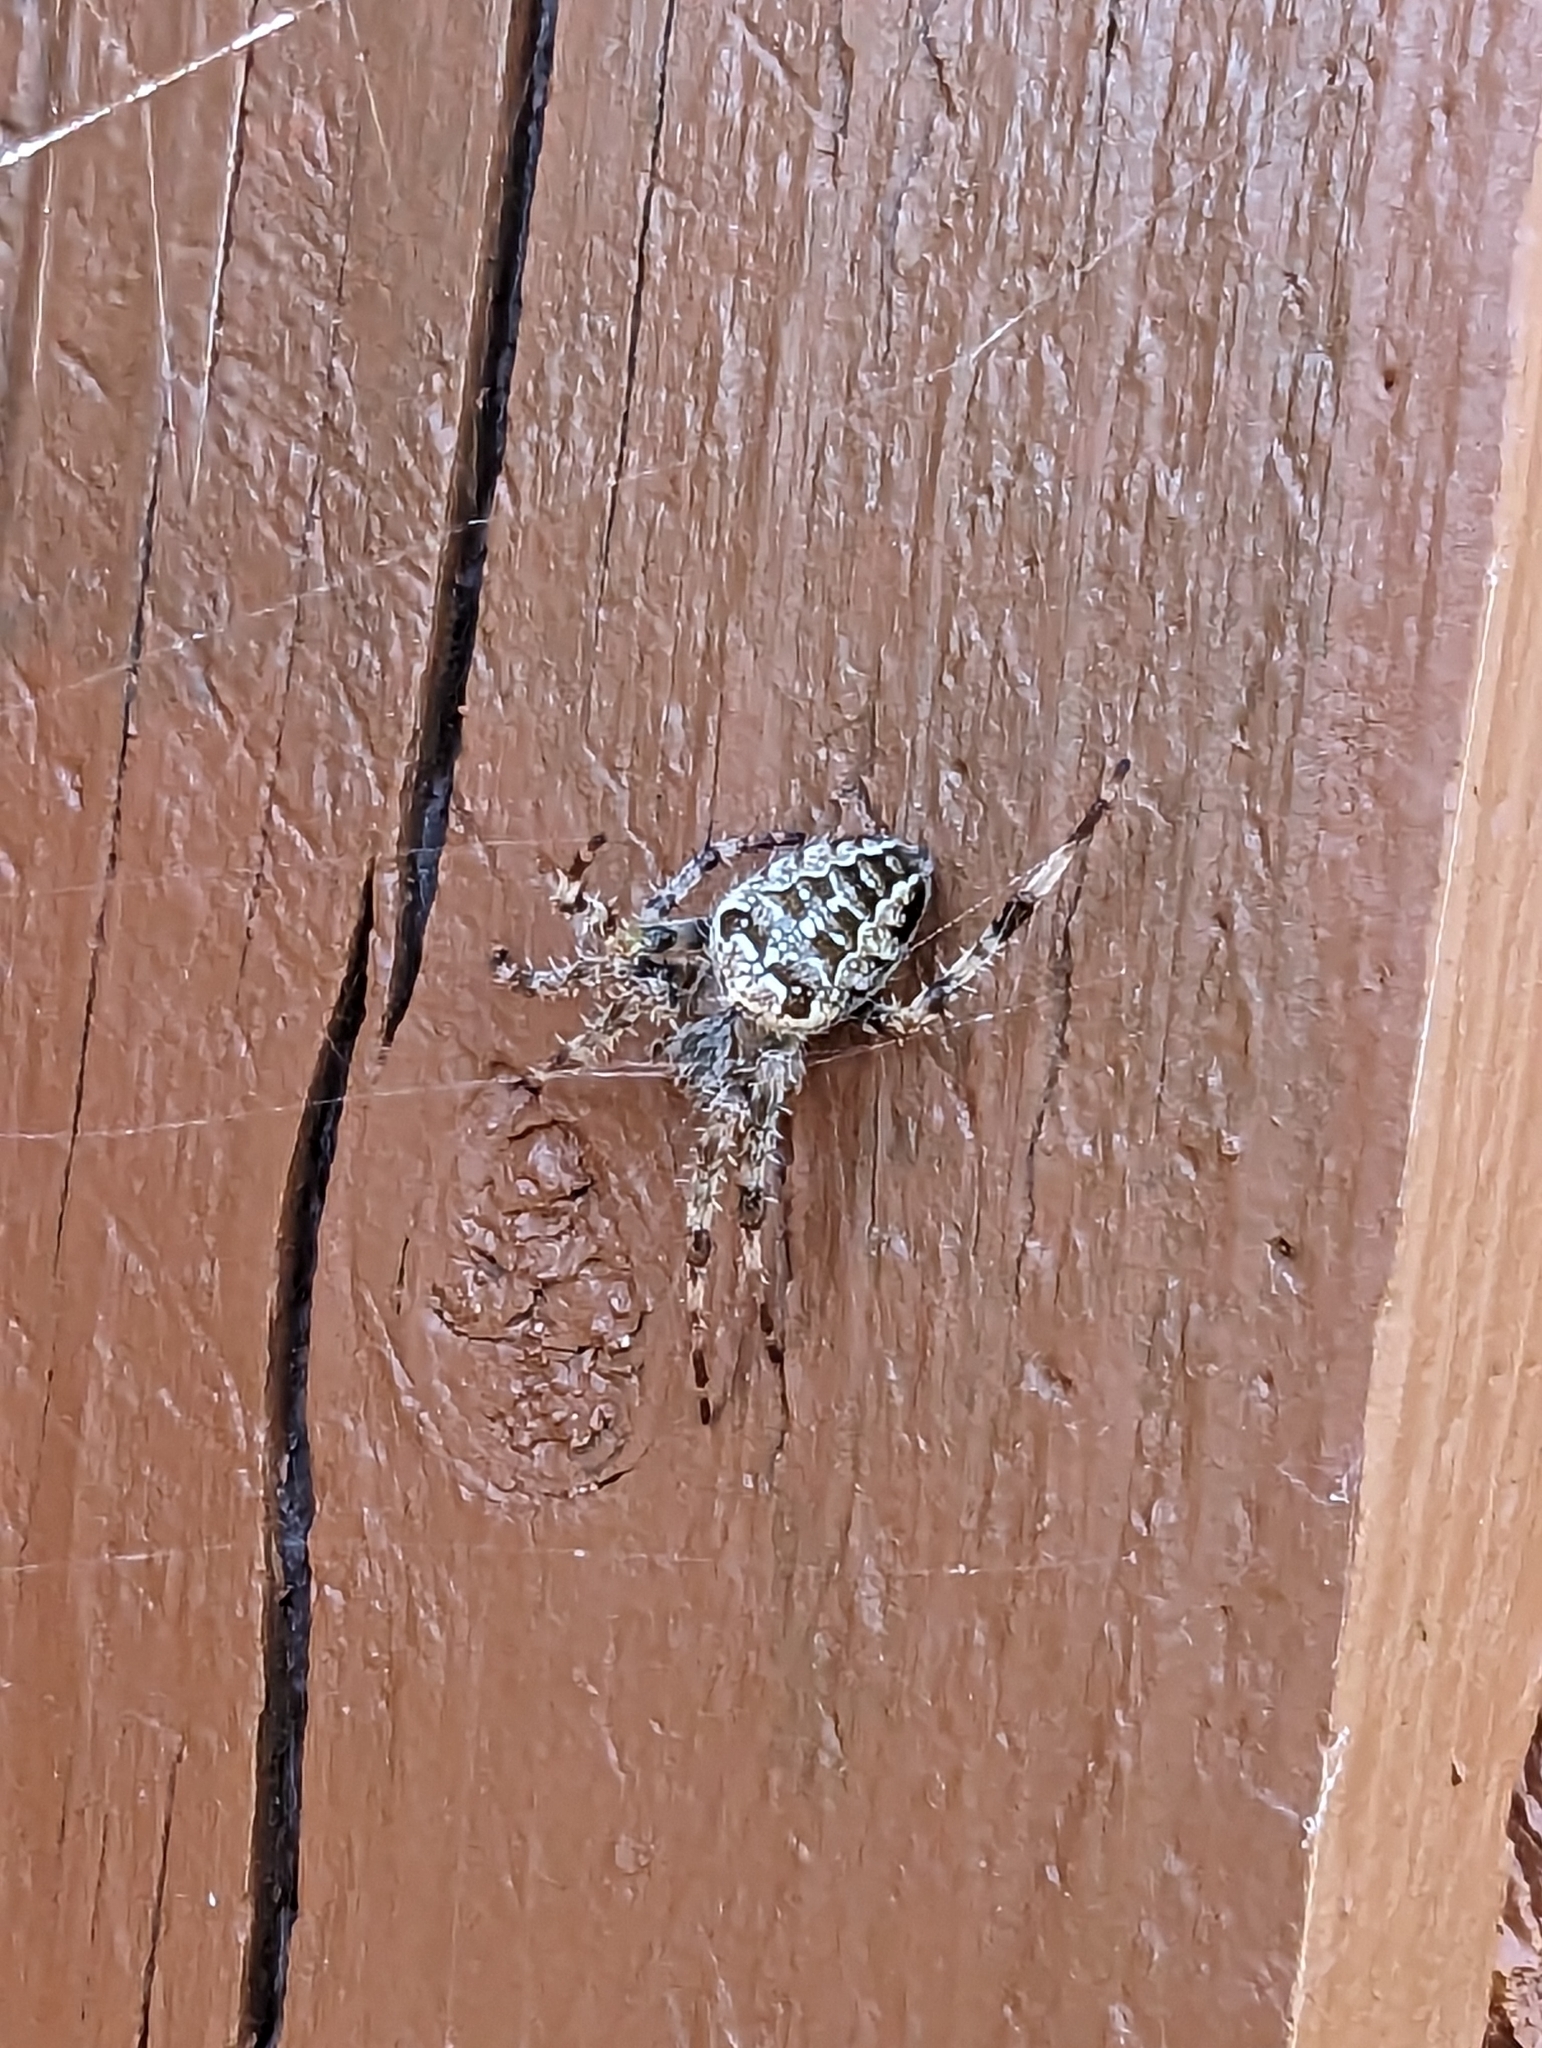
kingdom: Animalia
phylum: Arthropoda
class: Arachnida
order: Araneae
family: Araneidae
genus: Araneus
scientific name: Araneus diadematus
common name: Cross orbweaver
